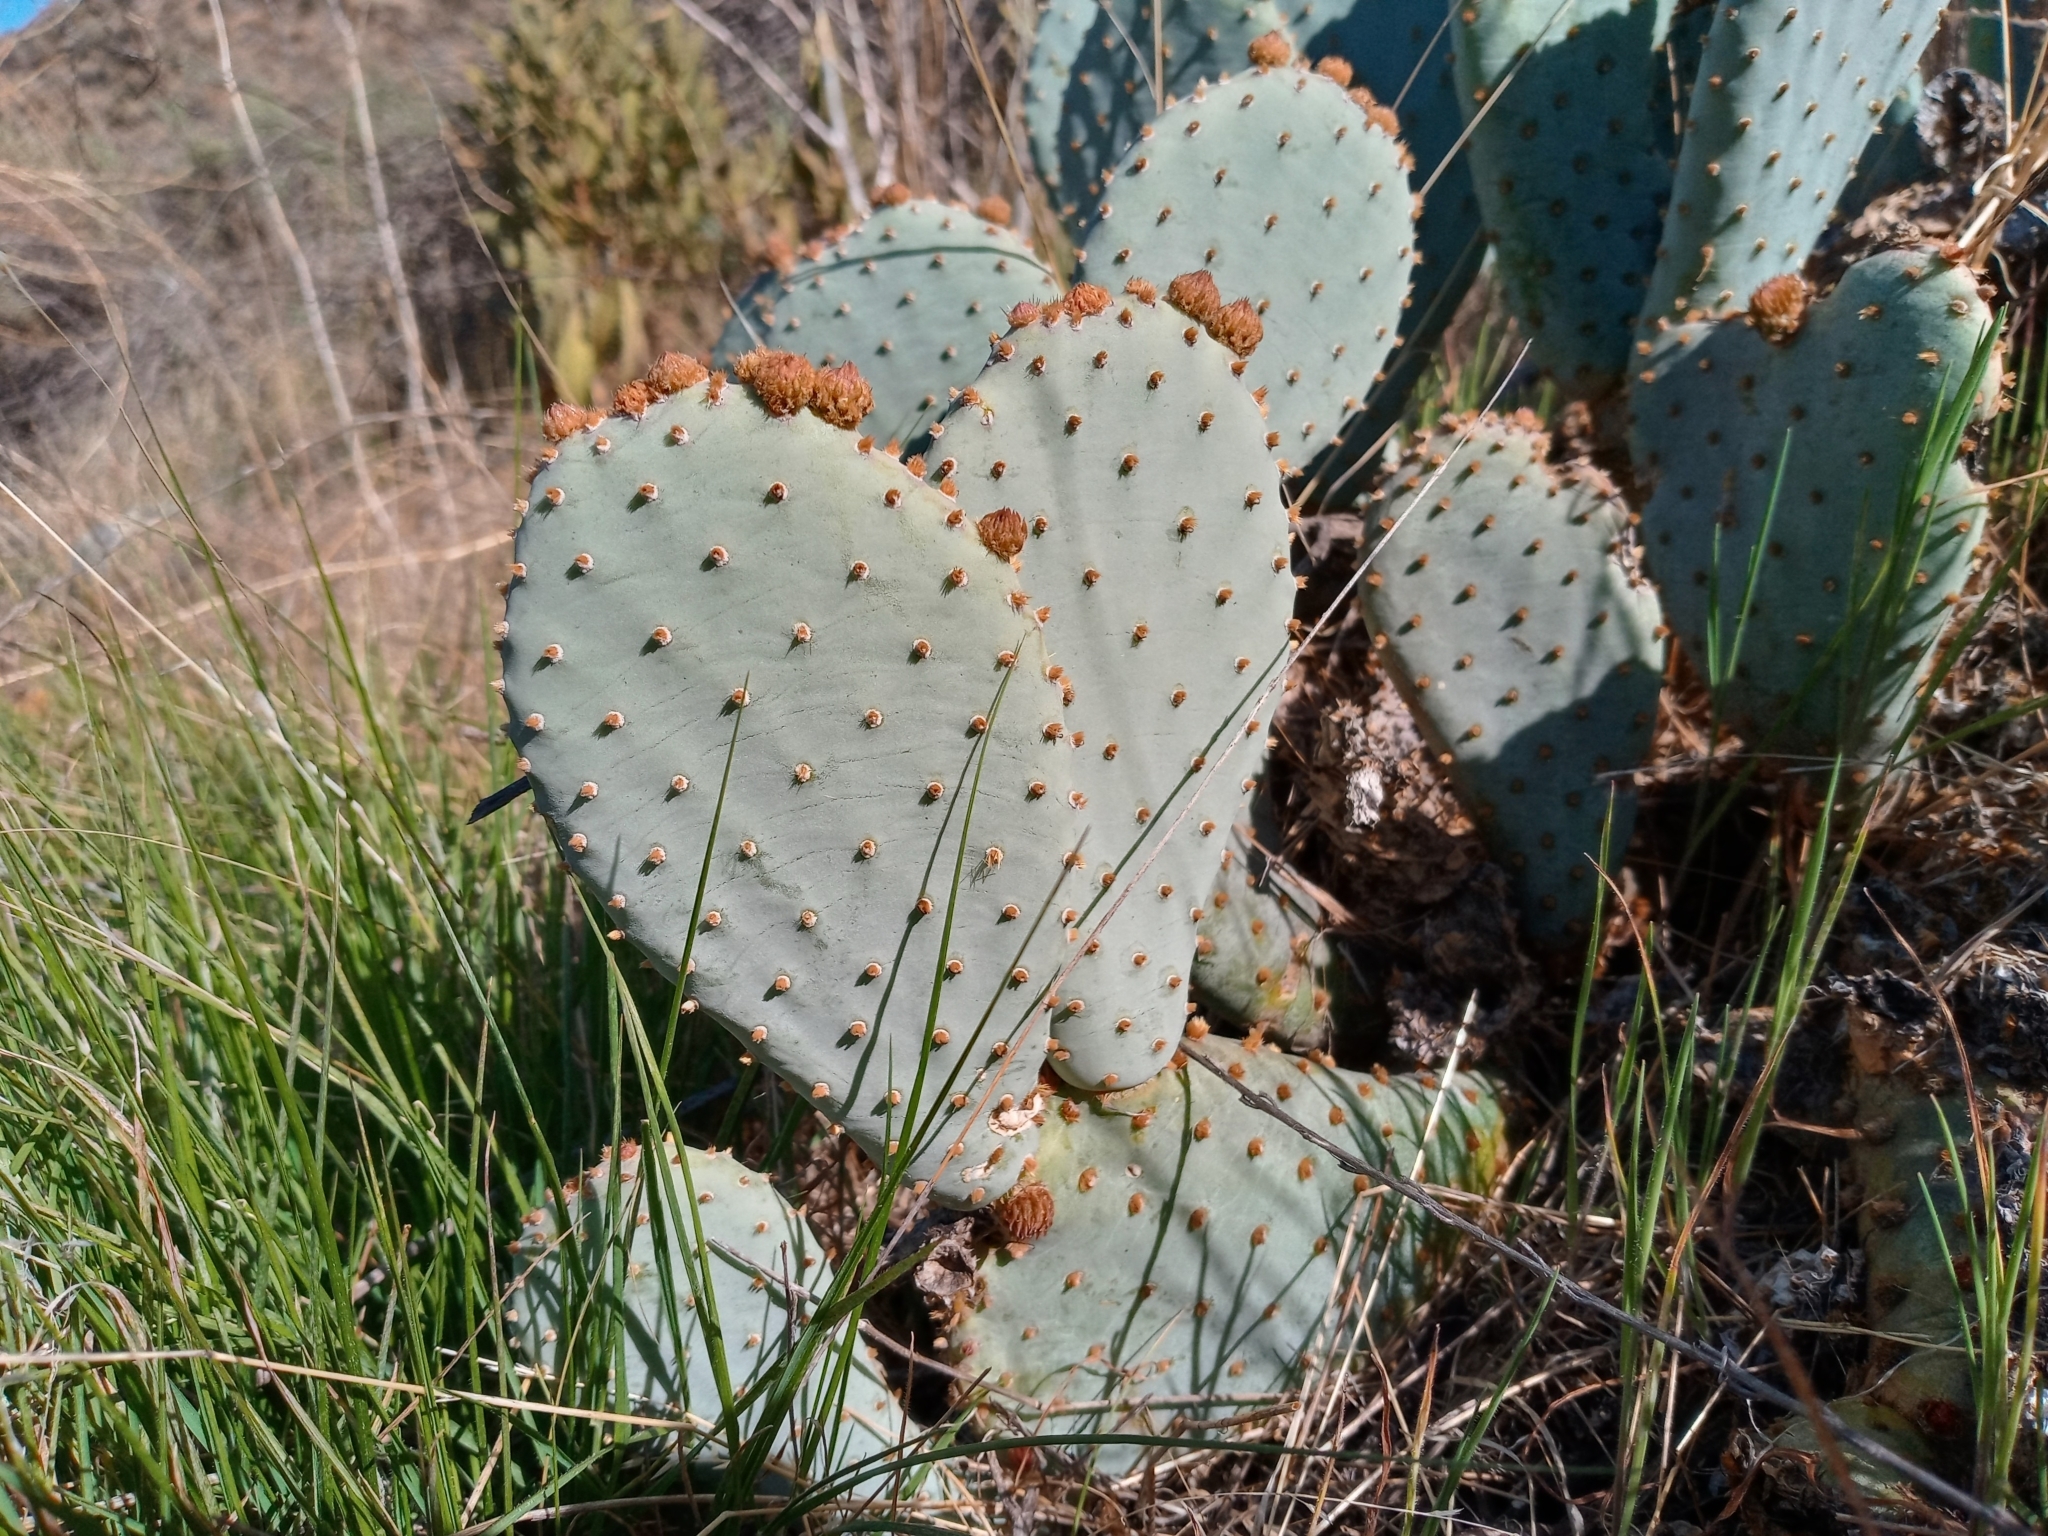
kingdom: Plantae
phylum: Tracheophyta
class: Magnoliopsida
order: Caryophyllales
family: Cactaceae
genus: Opuntia
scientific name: Opuntia basilaris
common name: Beavertail prickly-pear
